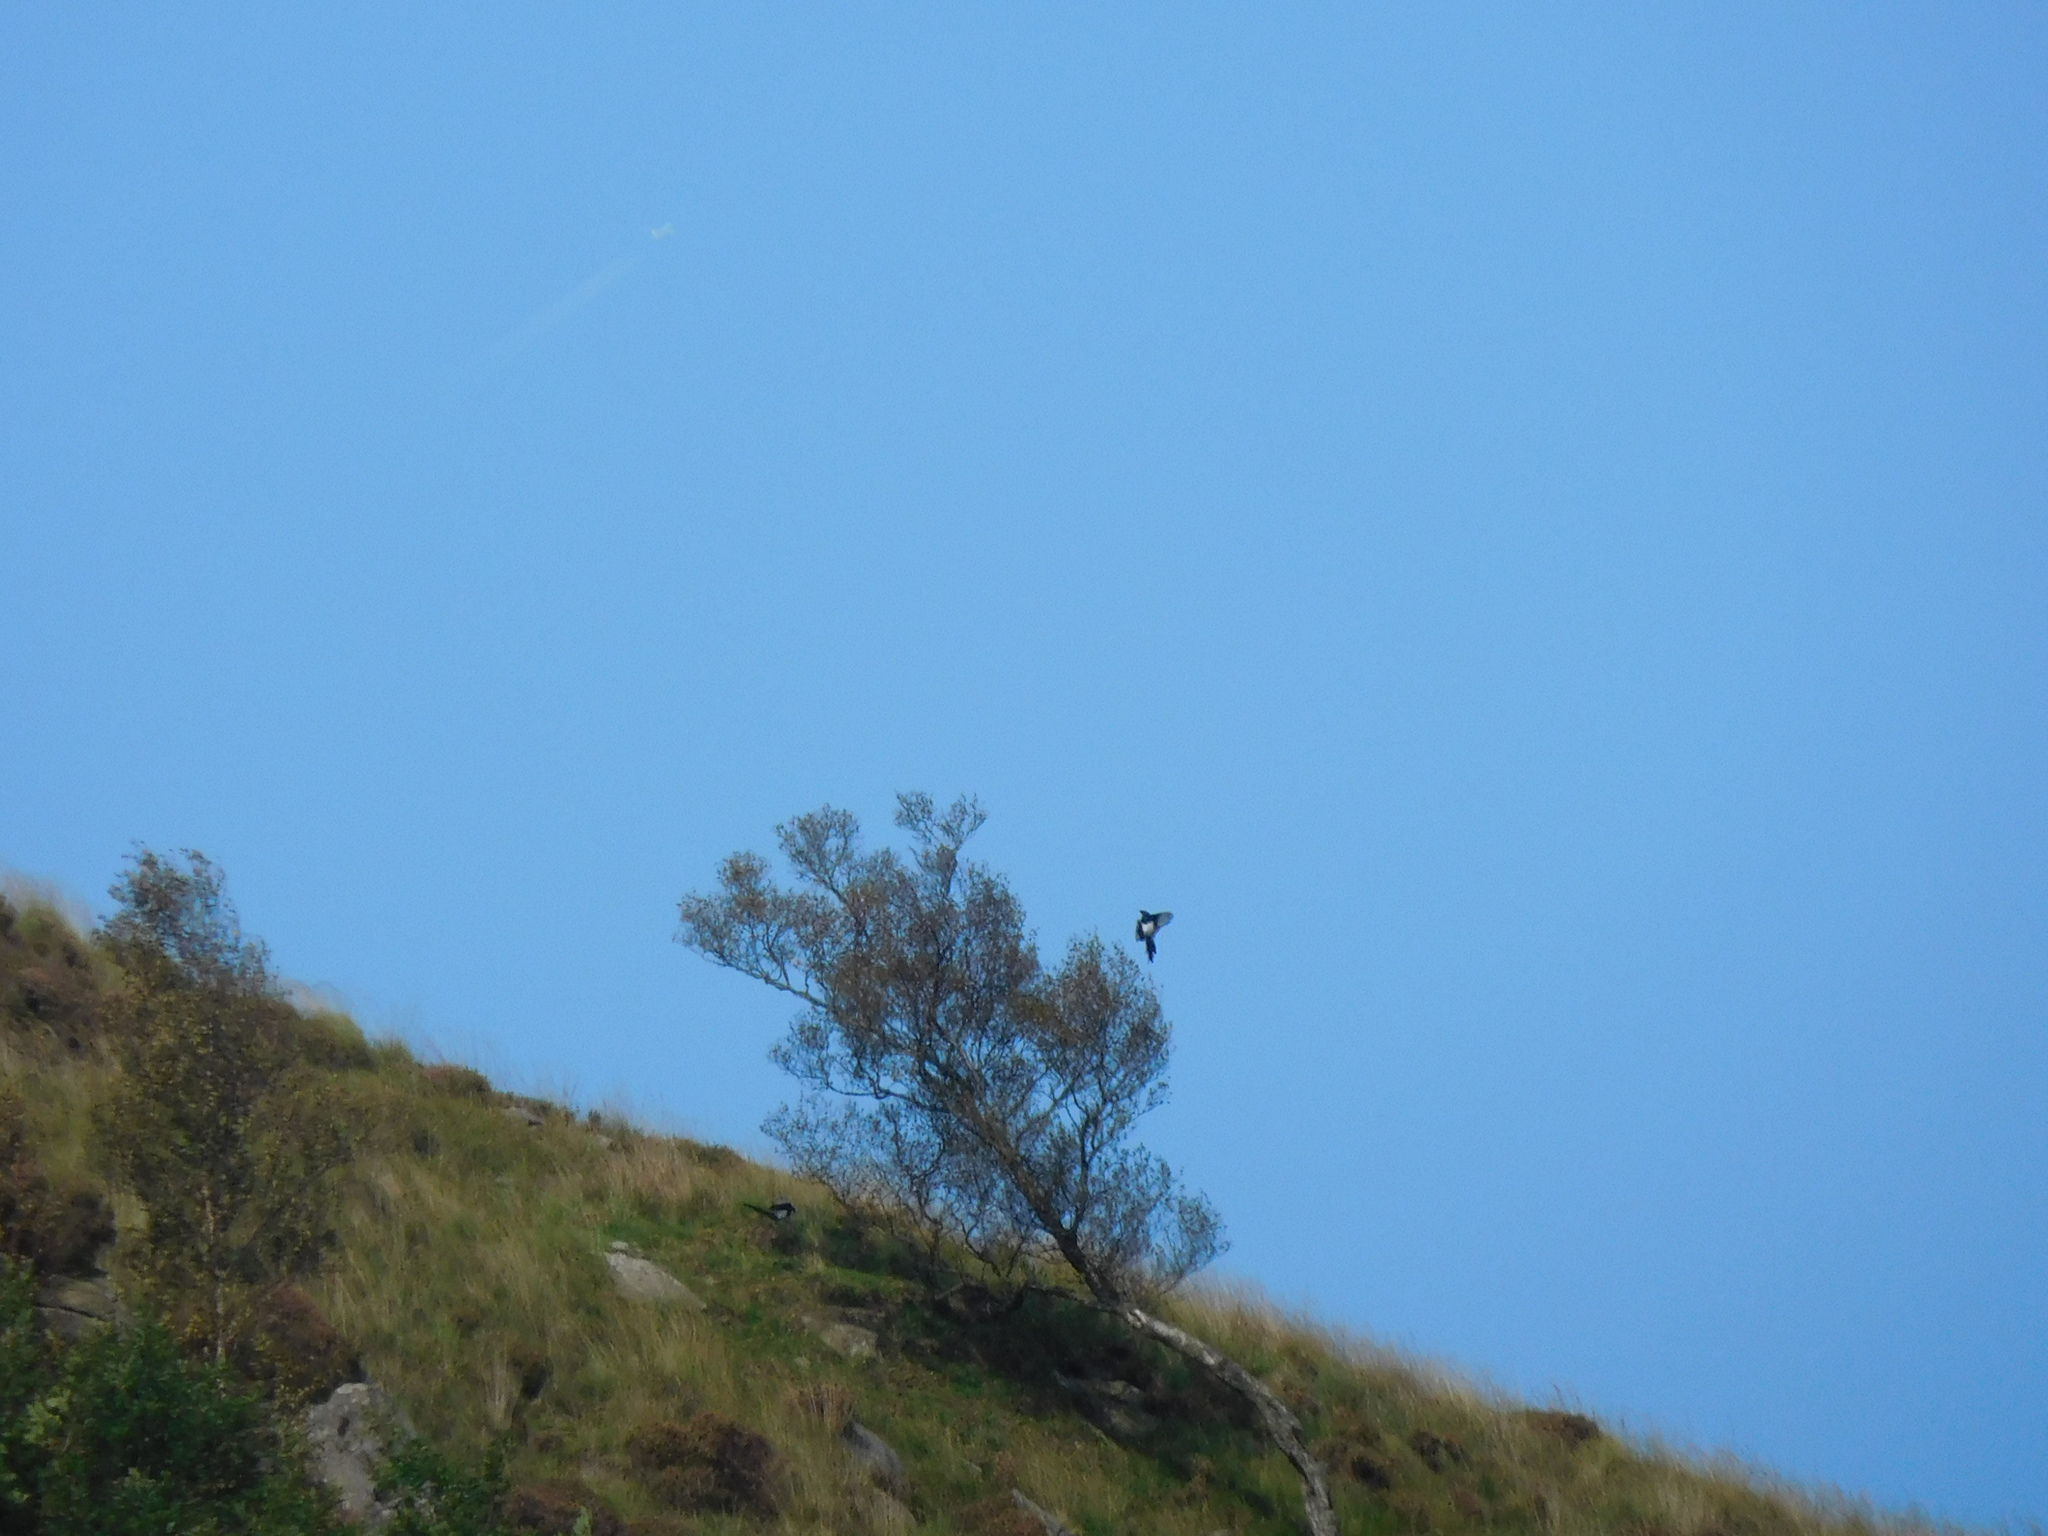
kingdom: Animalia
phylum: Chordata
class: Aves
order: Passeriformes
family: Corvidae
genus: Pica
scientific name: Pica pica
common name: Eurasian magpie
